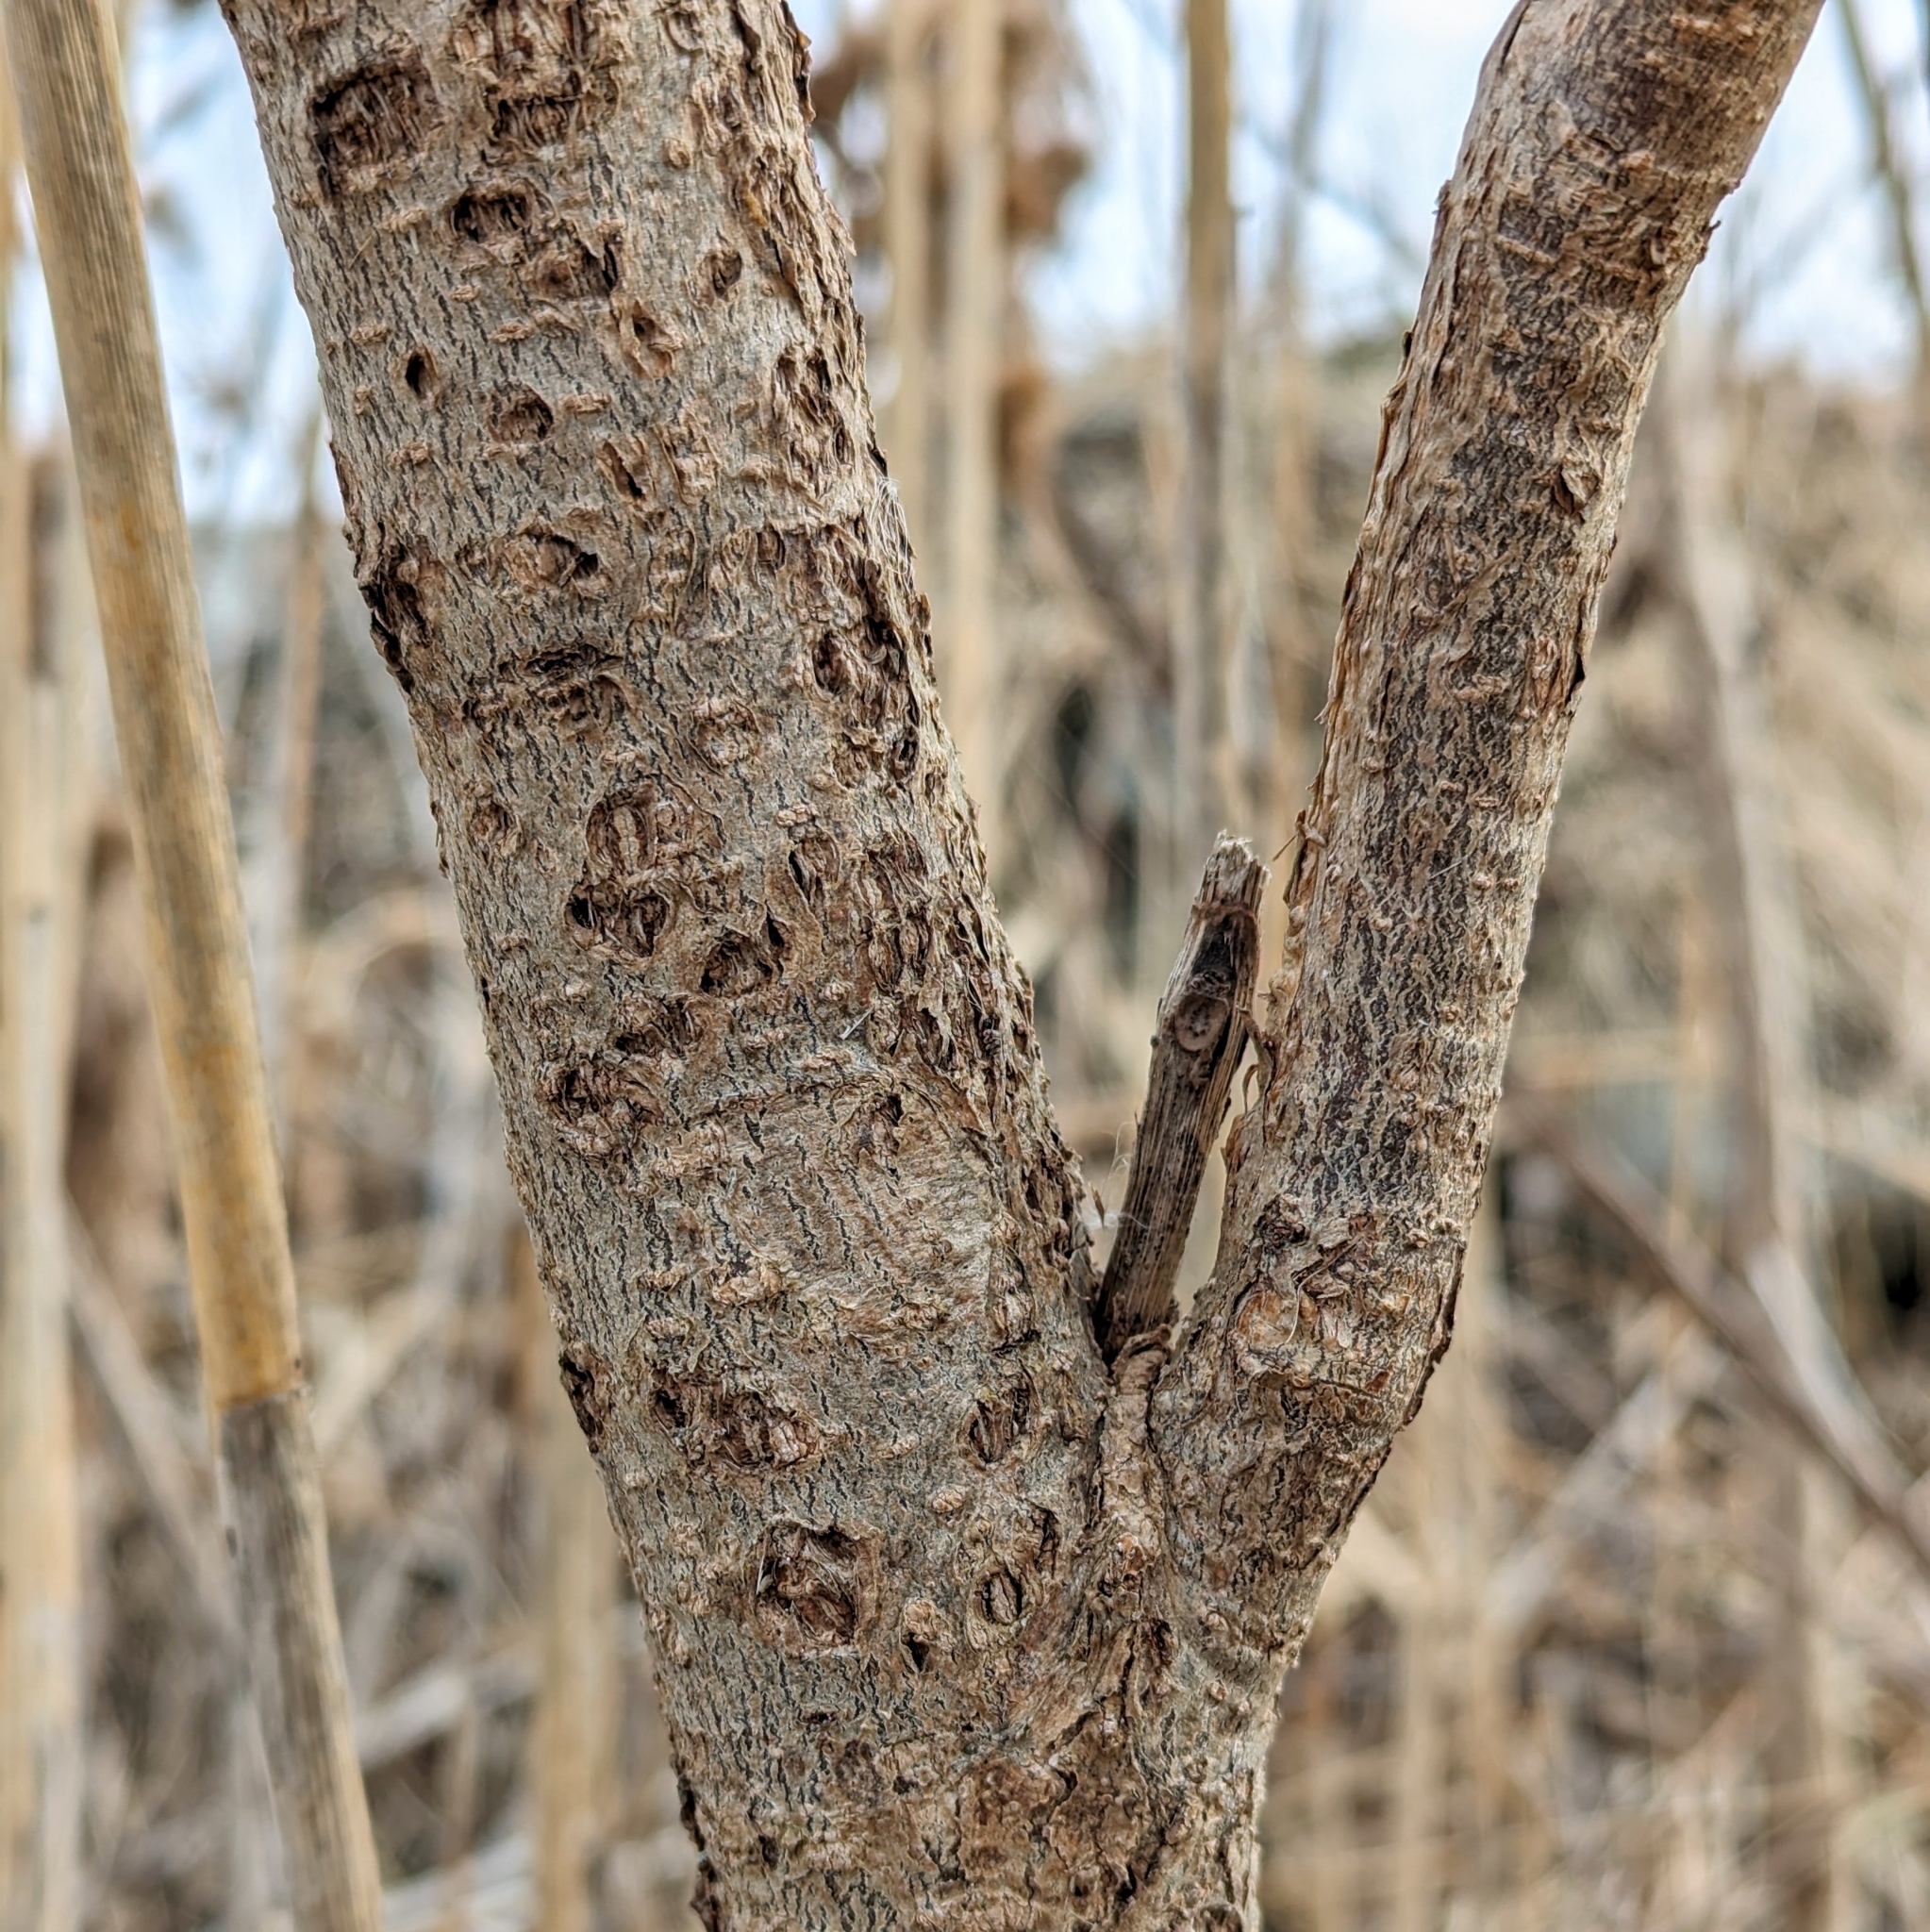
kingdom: Plantae
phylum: Tracheophyta
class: Magnoliopsida
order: Lamiales
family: Bignoniaceae
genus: Catalpa
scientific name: Catalpa
